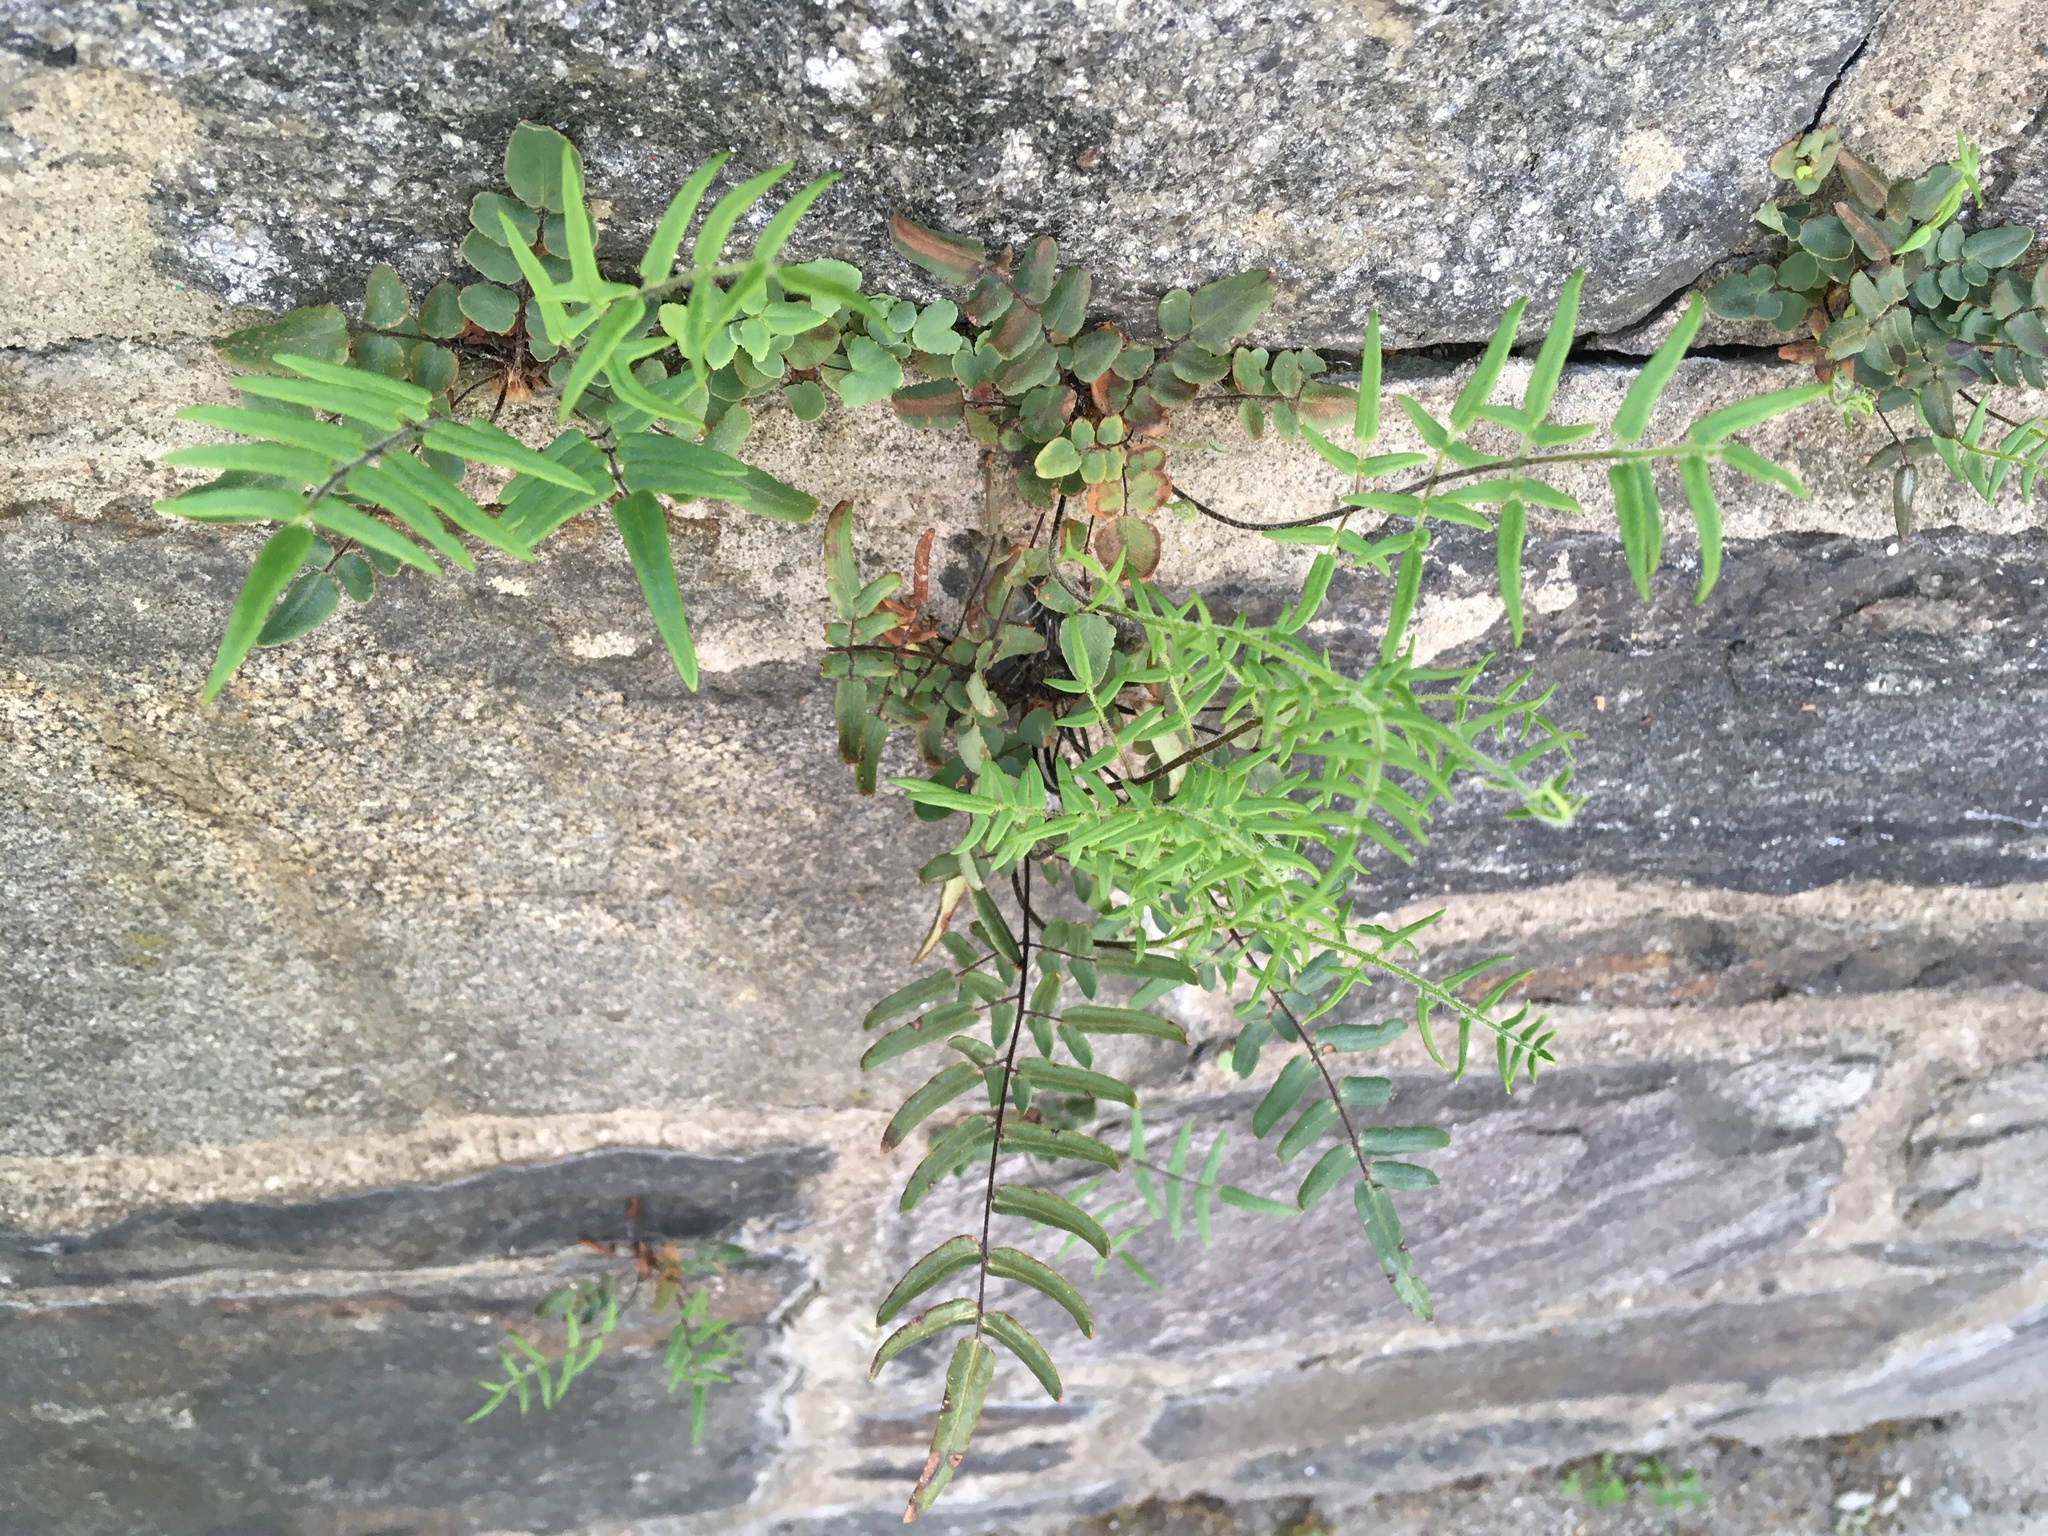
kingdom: Plantae
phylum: Tracheophyta
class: Polypodiopsida
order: Polypodiales
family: Pteridaceae
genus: Pellaea
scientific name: Pellaea atropurpurea
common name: Hairy cliffbrake
